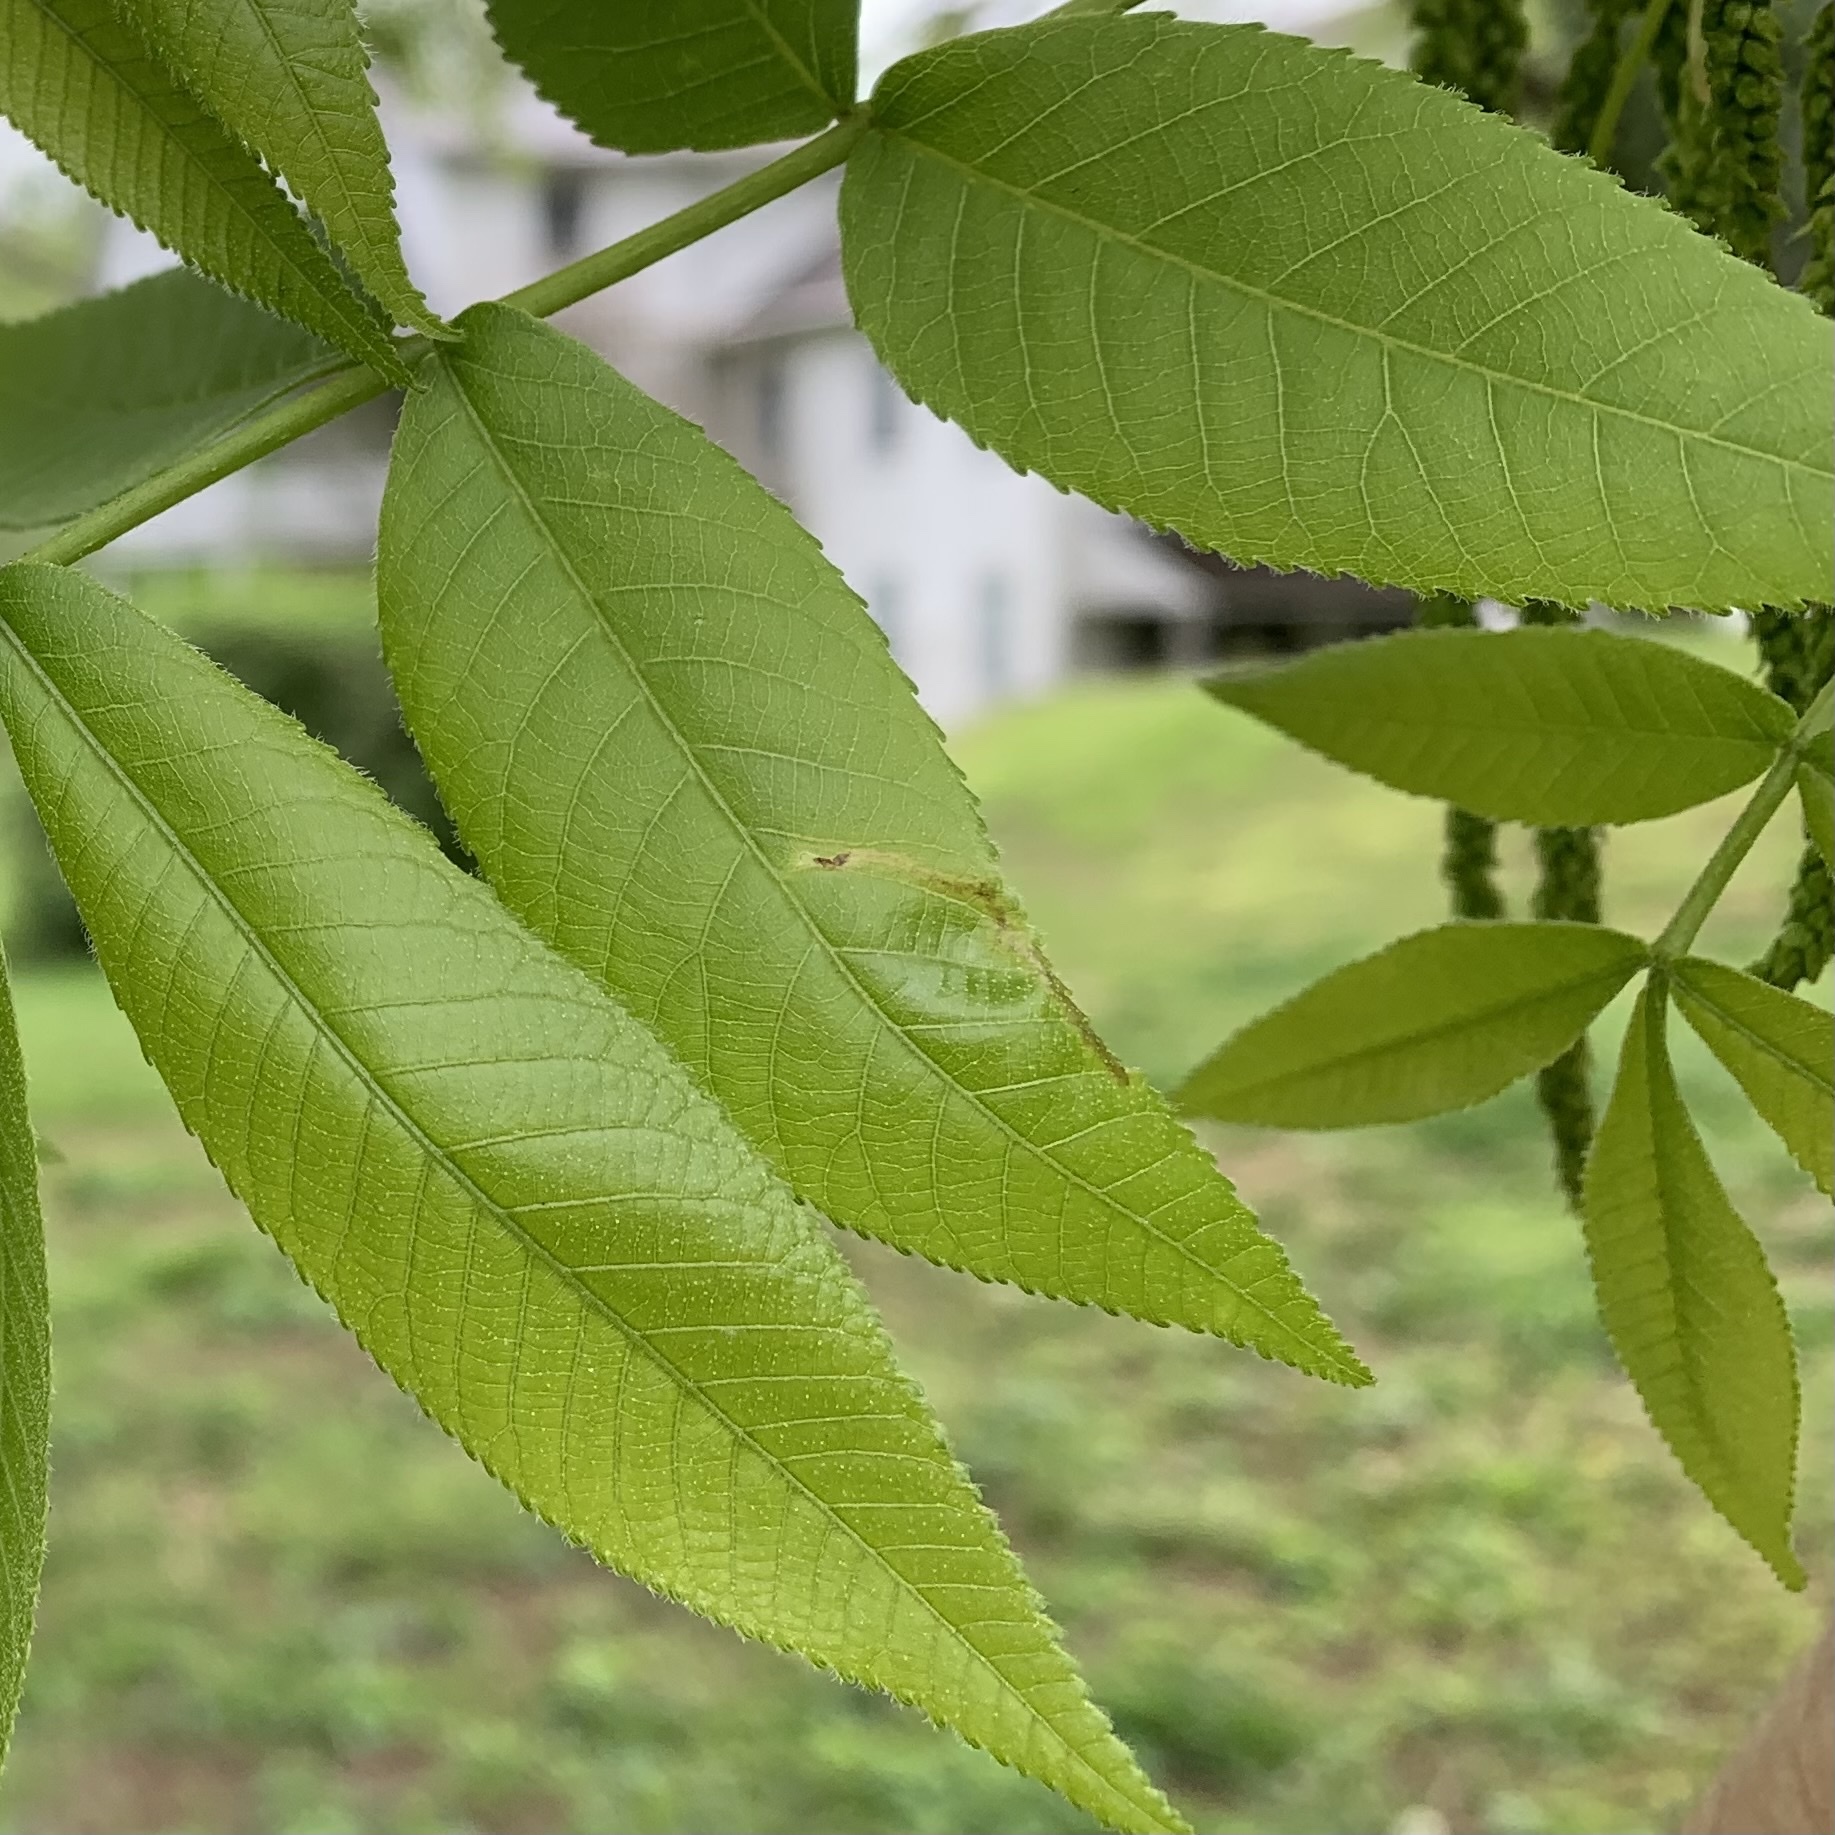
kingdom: Animalia
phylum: Arthropoda
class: Insecta
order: Diptera
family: Agromyzidae
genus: Japanagromyza
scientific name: Japanagromyza viridula
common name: Oak shothole leafminer
